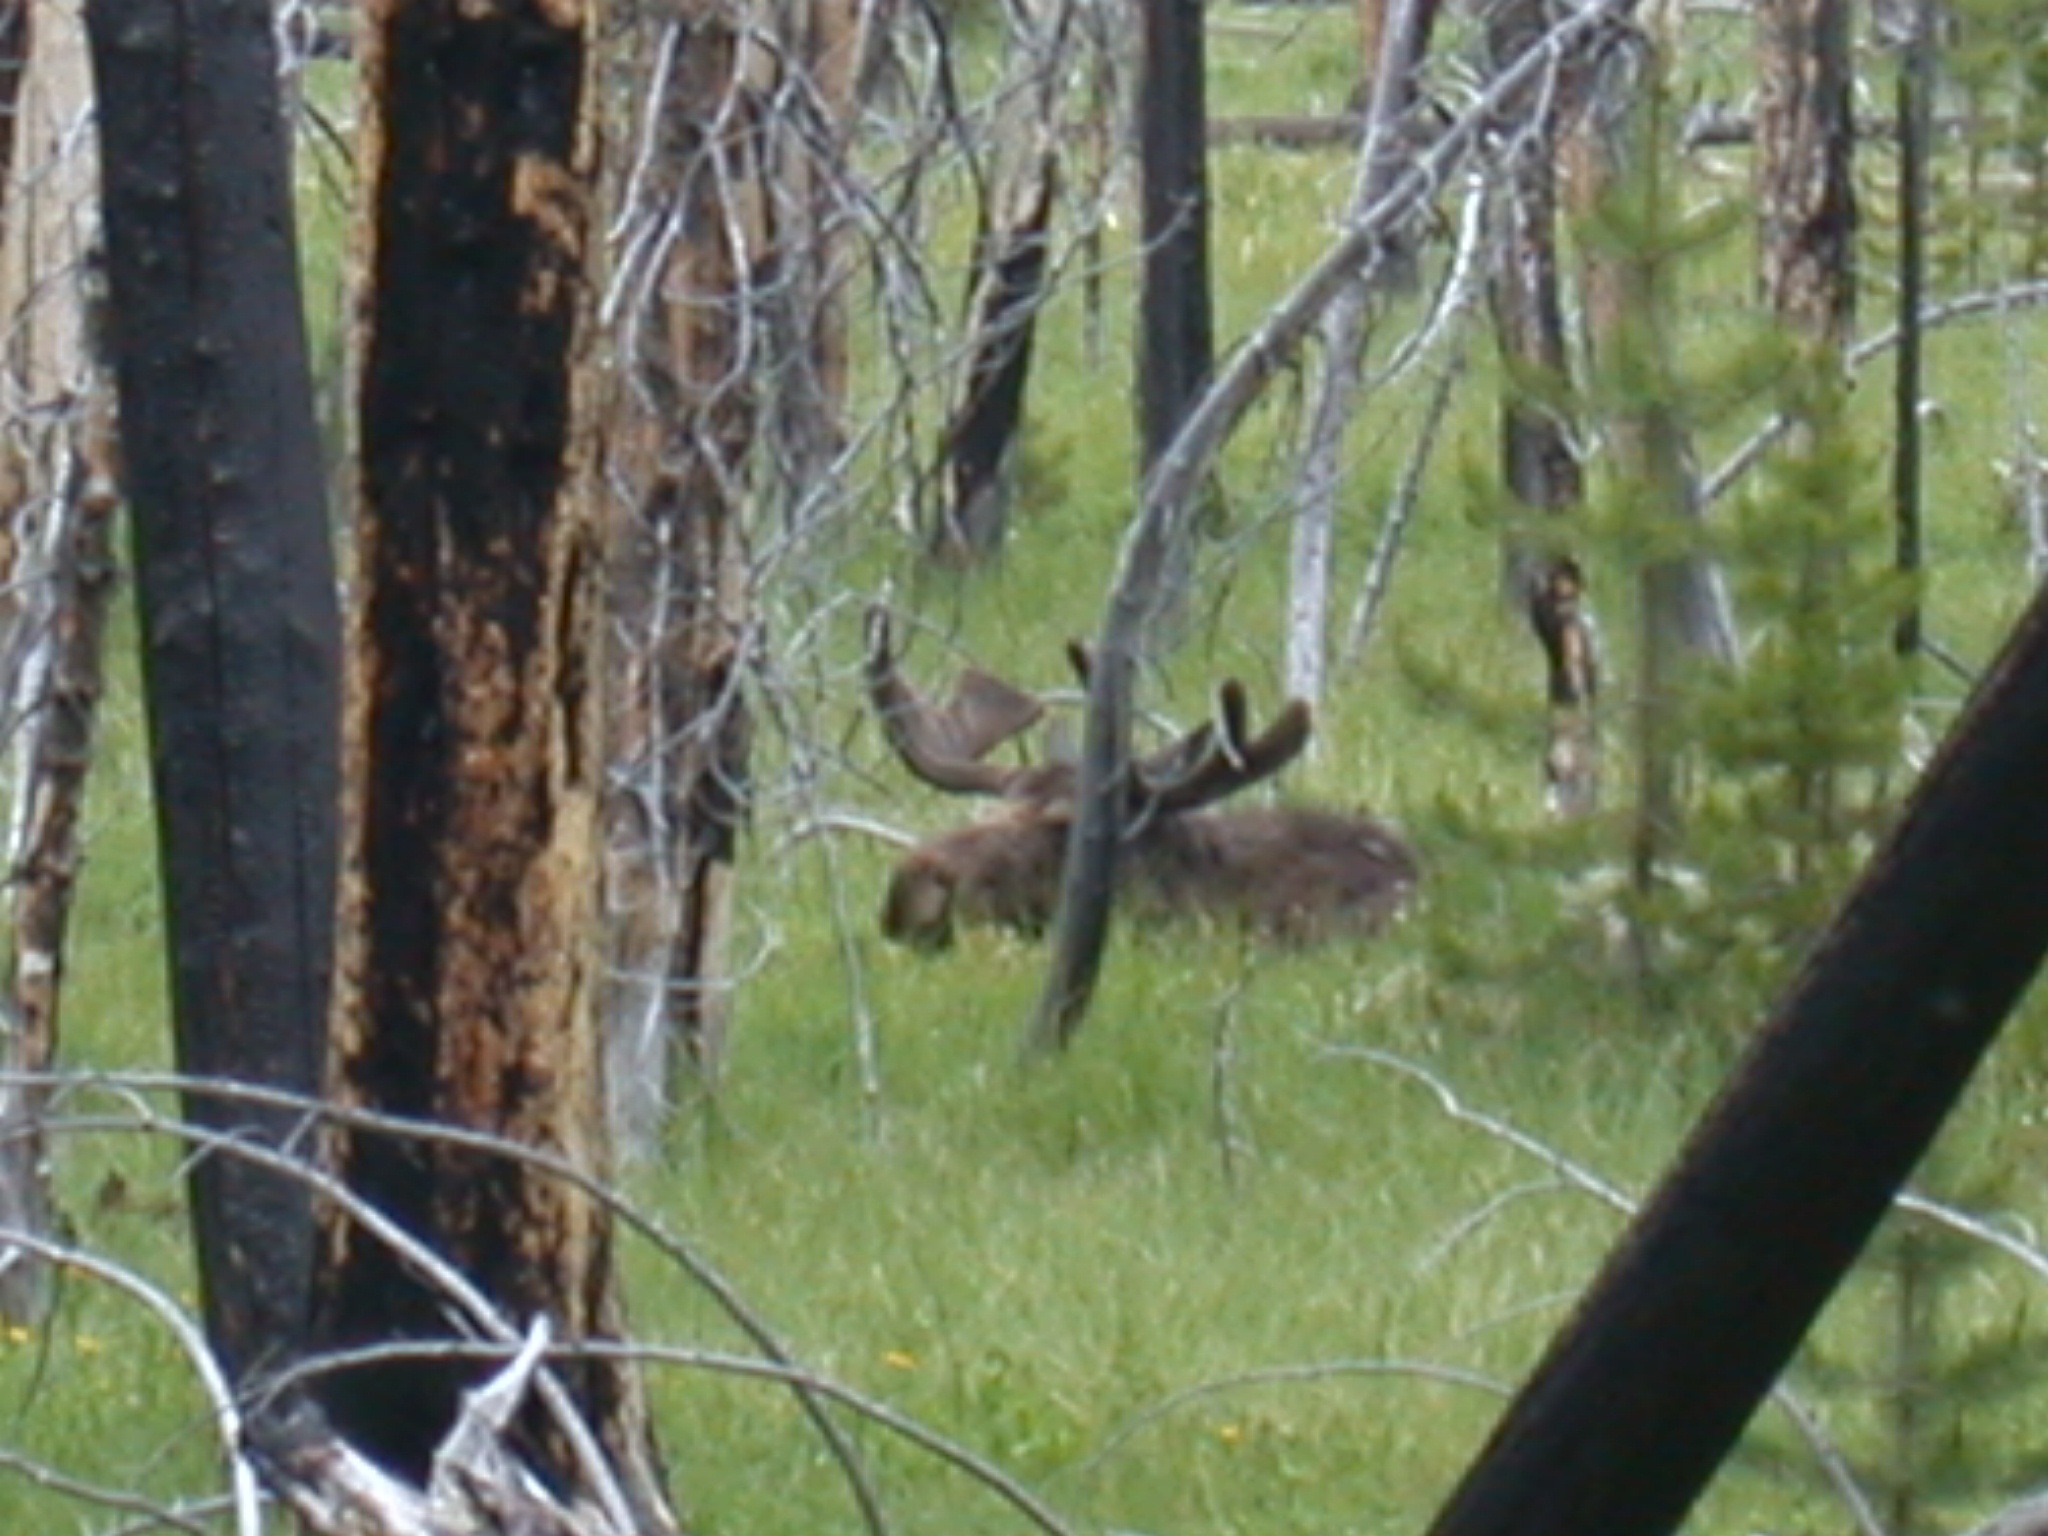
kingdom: Animalia
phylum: Chordata
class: Mammalia
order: Artiodactyla
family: Cervidae
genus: Alces
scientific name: Alces alces
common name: Moose
